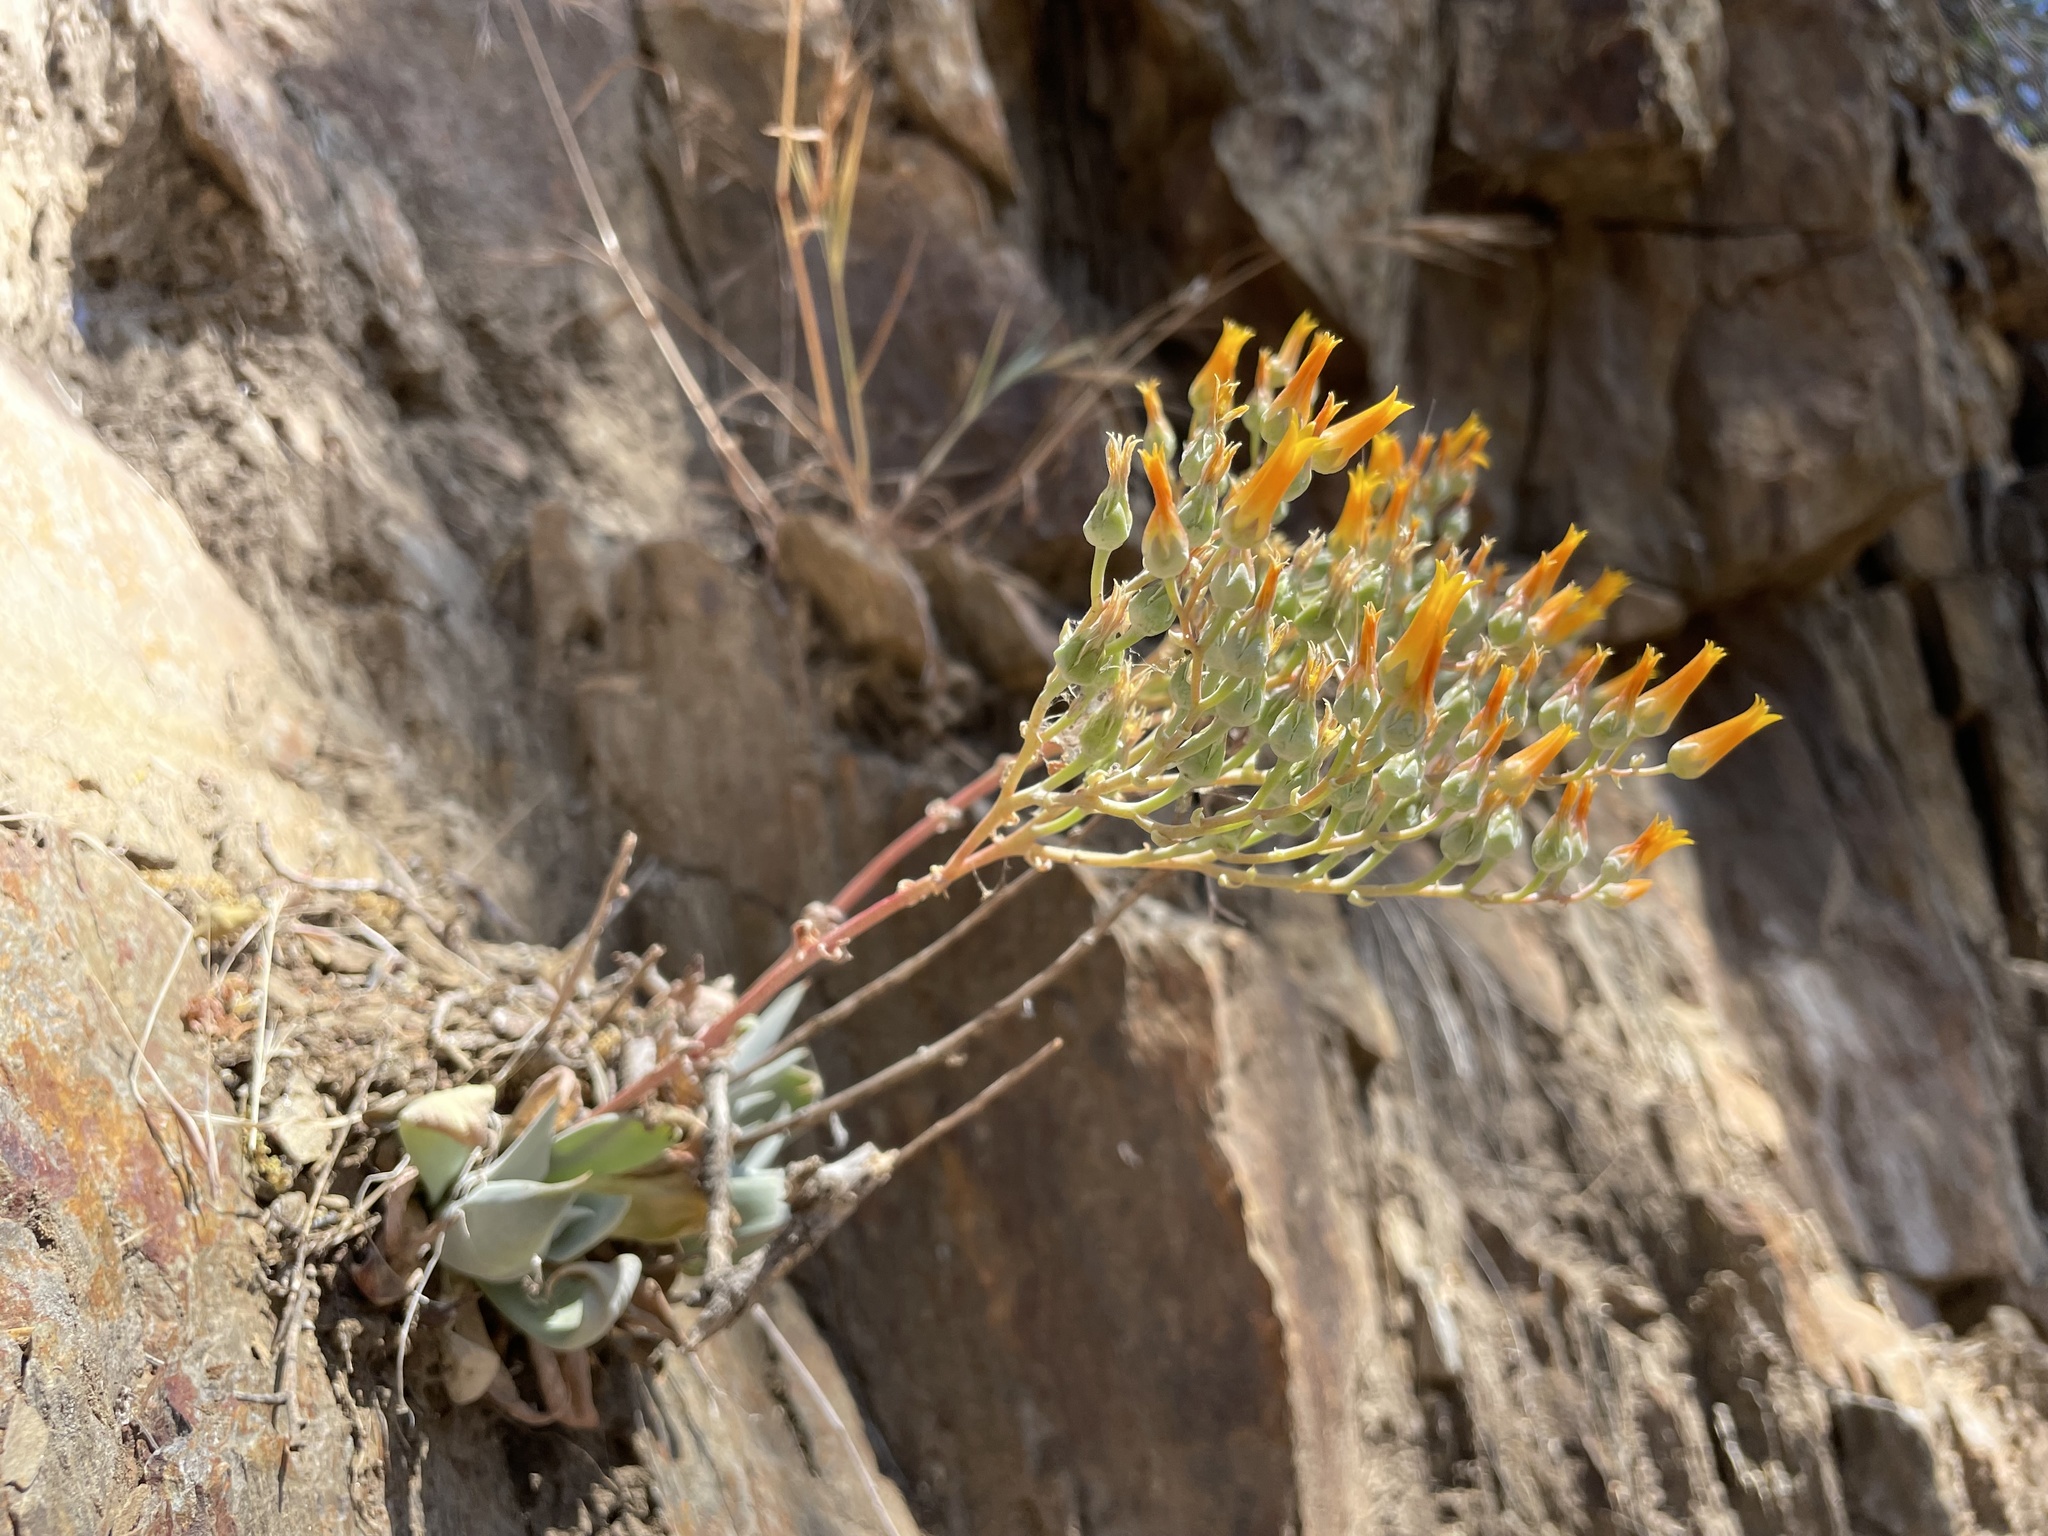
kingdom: Plantae
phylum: Tracheophyta
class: Magnoliopsida
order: Saxifragales
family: Crassulaceae
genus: Dudleya
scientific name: Dudleya cymosa
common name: Canyon dudleya
